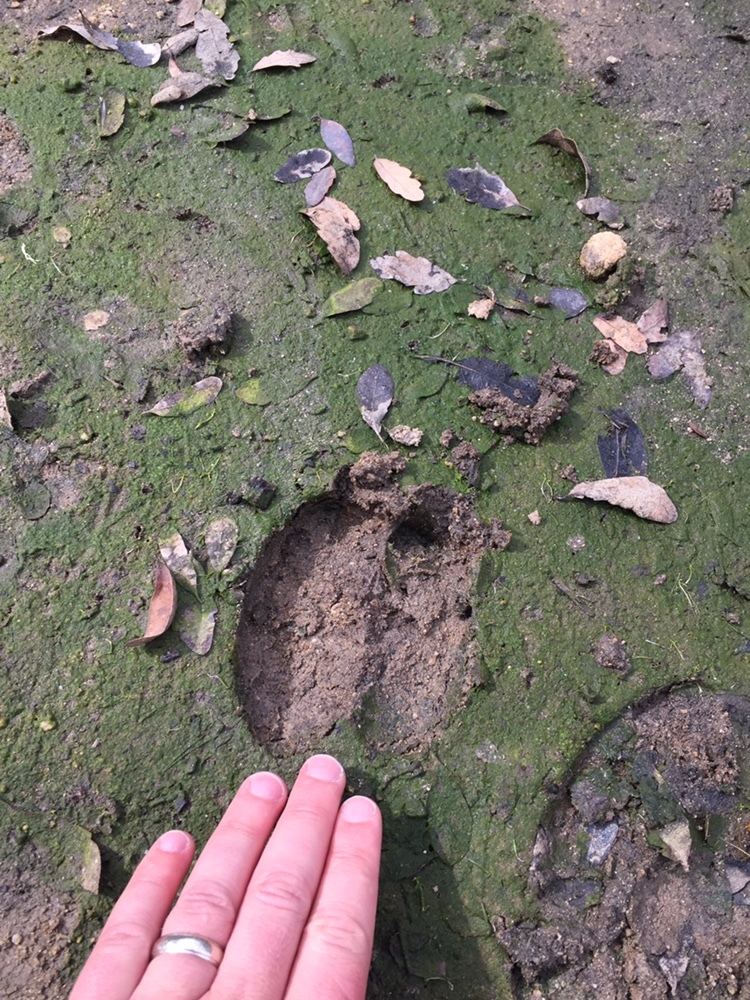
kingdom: Animalia
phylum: Chordata
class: Mammalia
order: Artiodactyla
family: Cervidae
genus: Cervus
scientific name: Cervus elaphus
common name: Red deer
